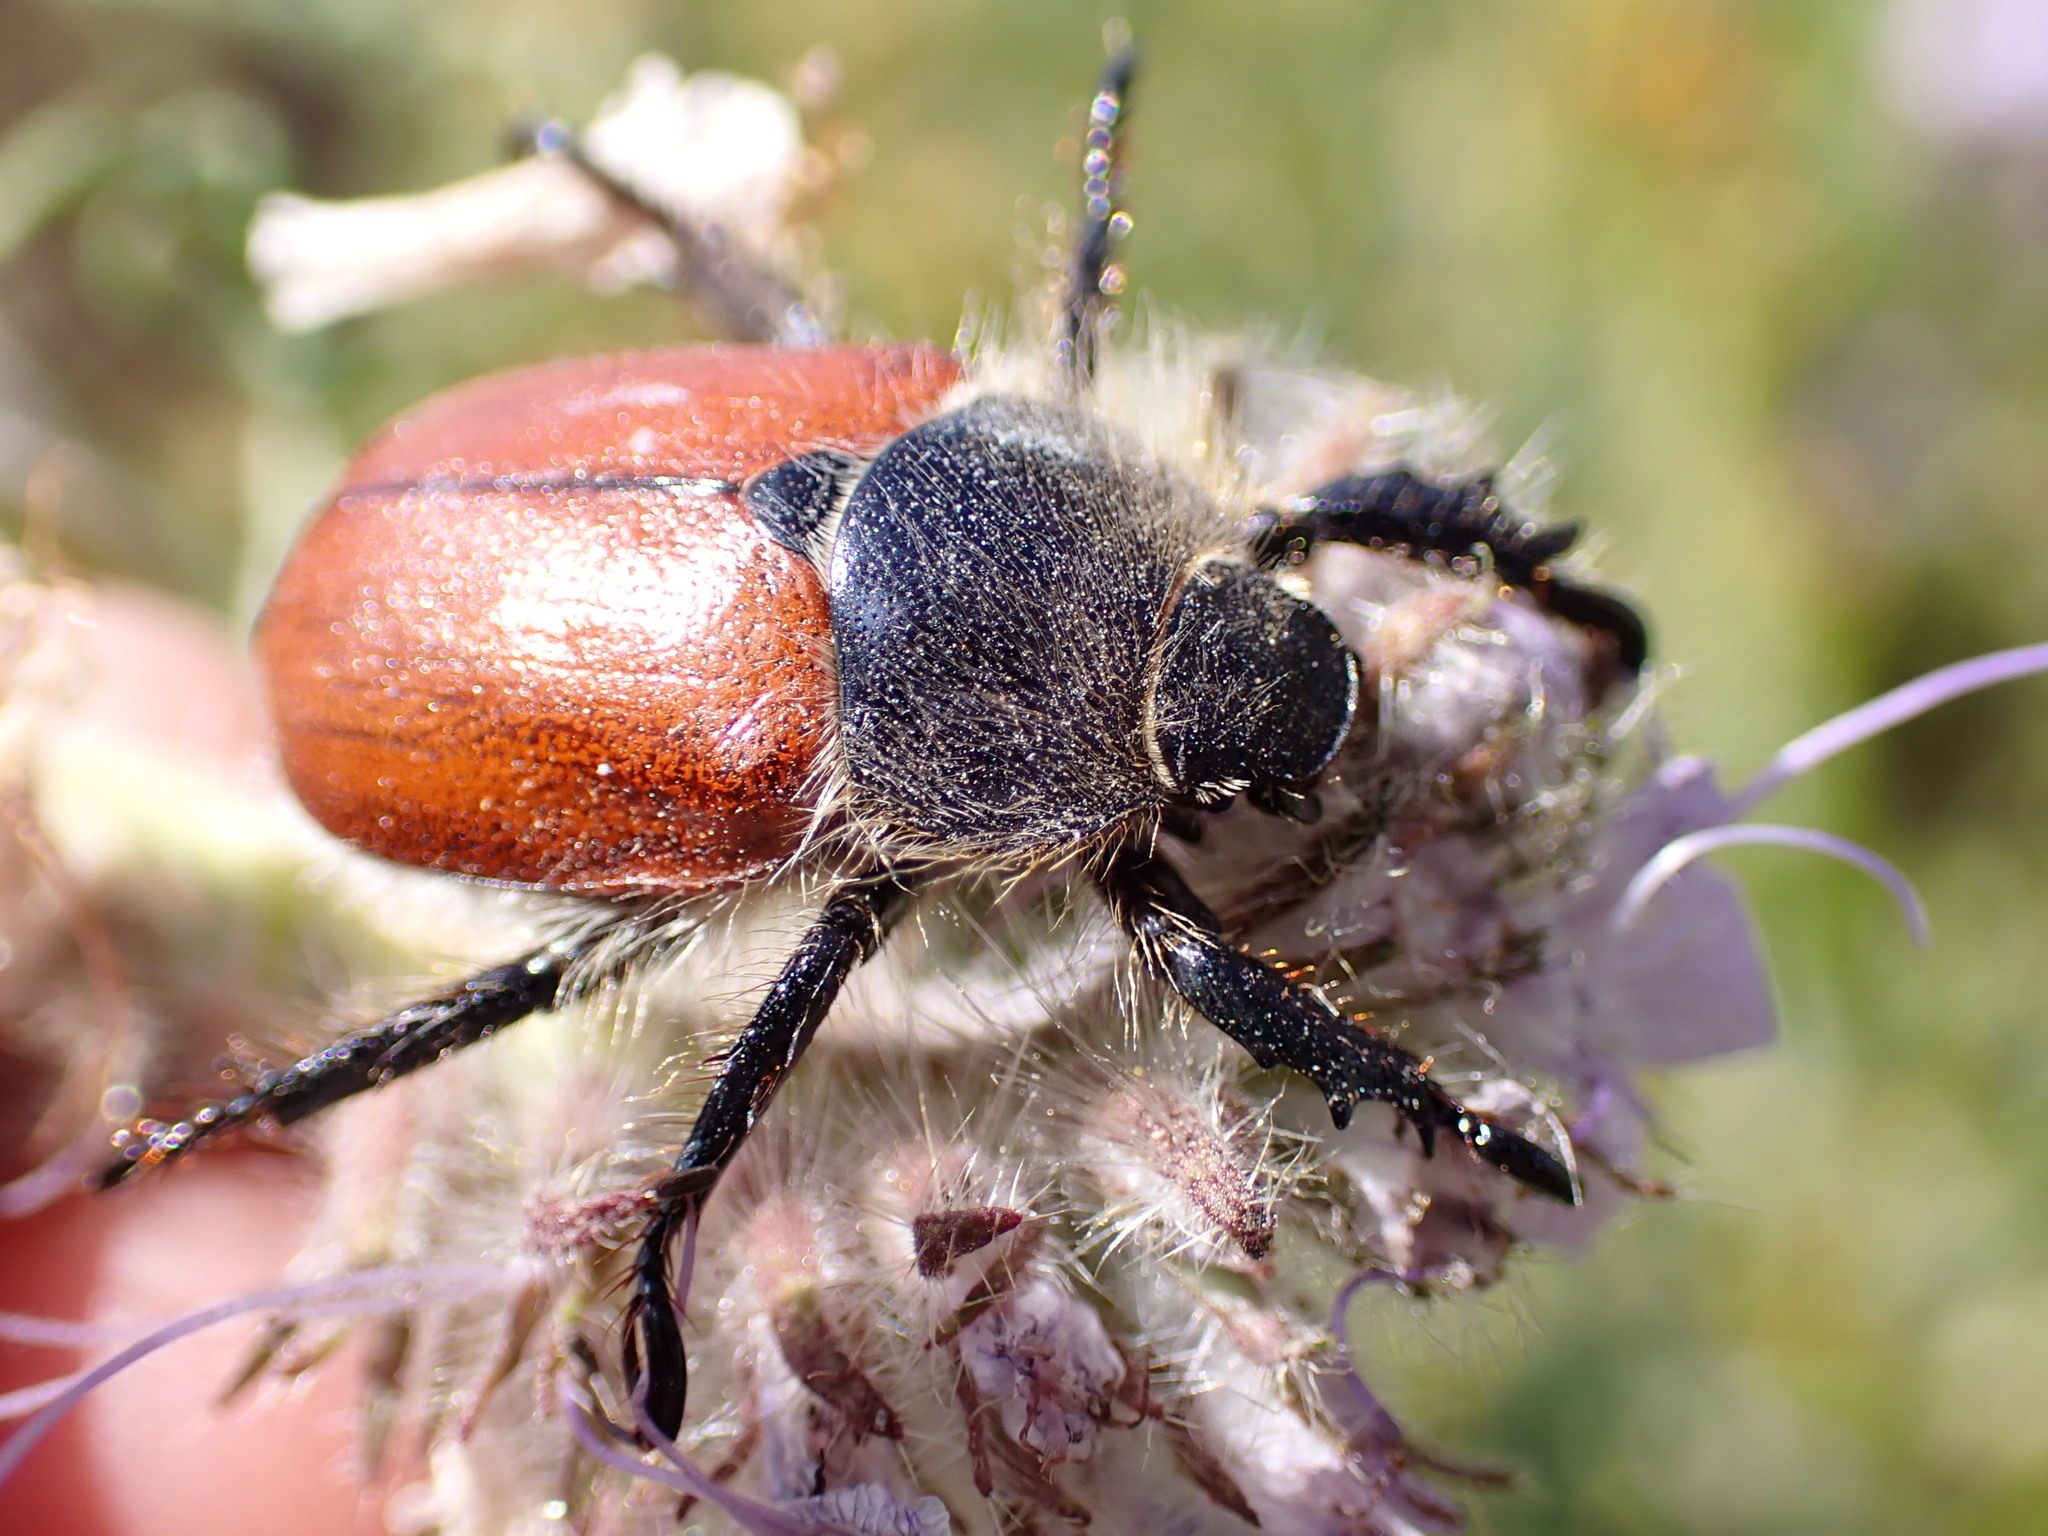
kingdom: Animalia
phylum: Arthropoda
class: Insecta
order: Coleoptera
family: Scarabaeidae
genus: Paracotalpa
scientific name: Paracotalpa ursina
